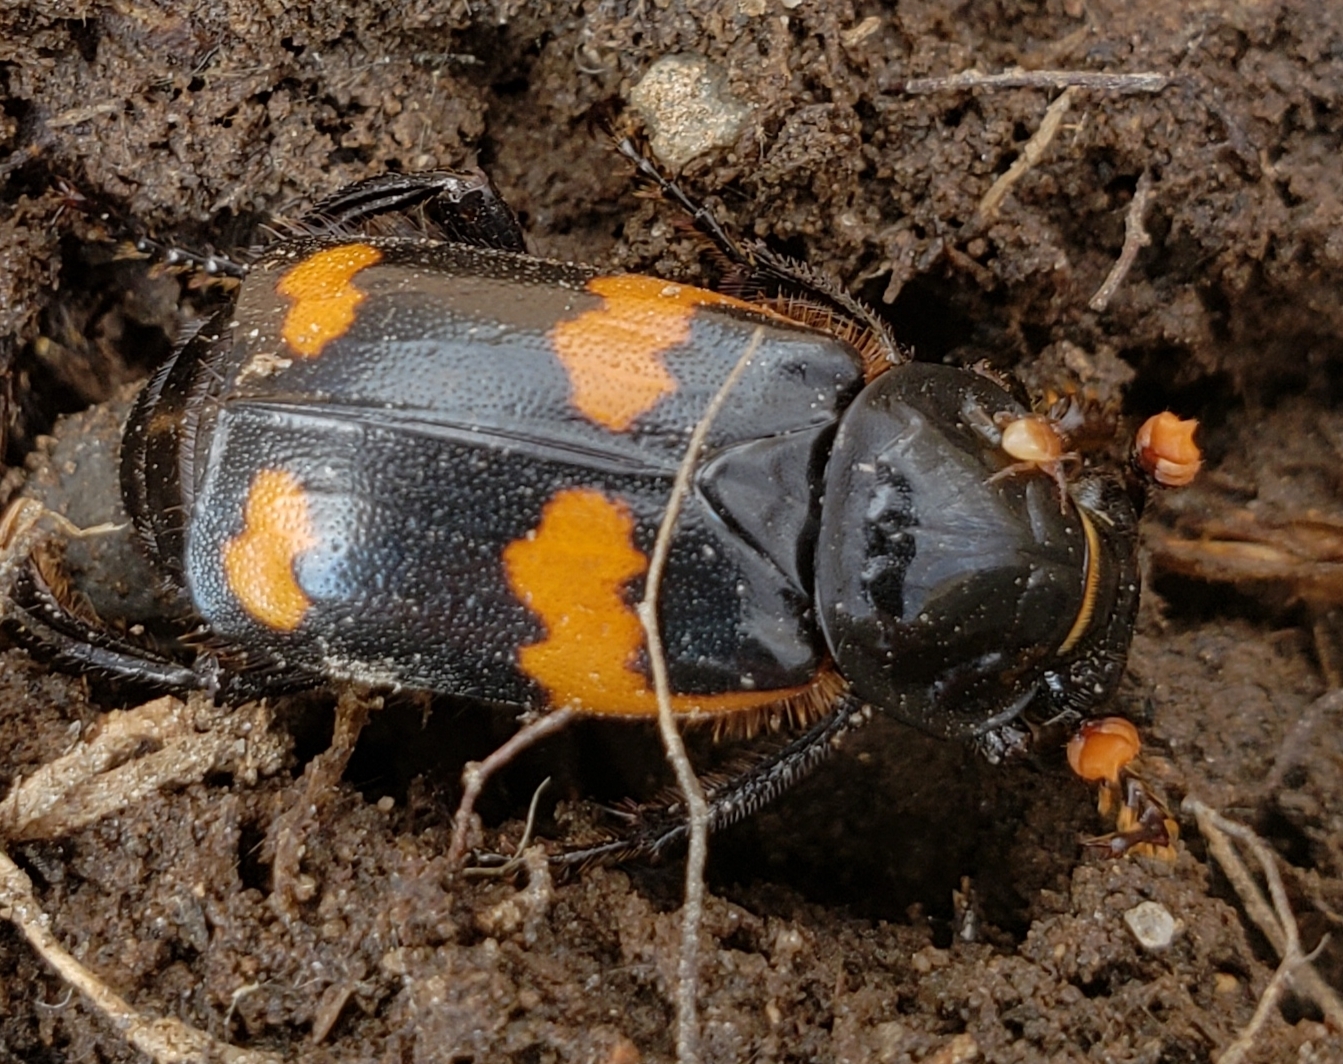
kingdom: Animalia
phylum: Arthropoda
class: Insecta
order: Coleoptera
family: Staphylinidae
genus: Nicrophorus
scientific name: Nicrophorus sayi
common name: Say's burying beetle
